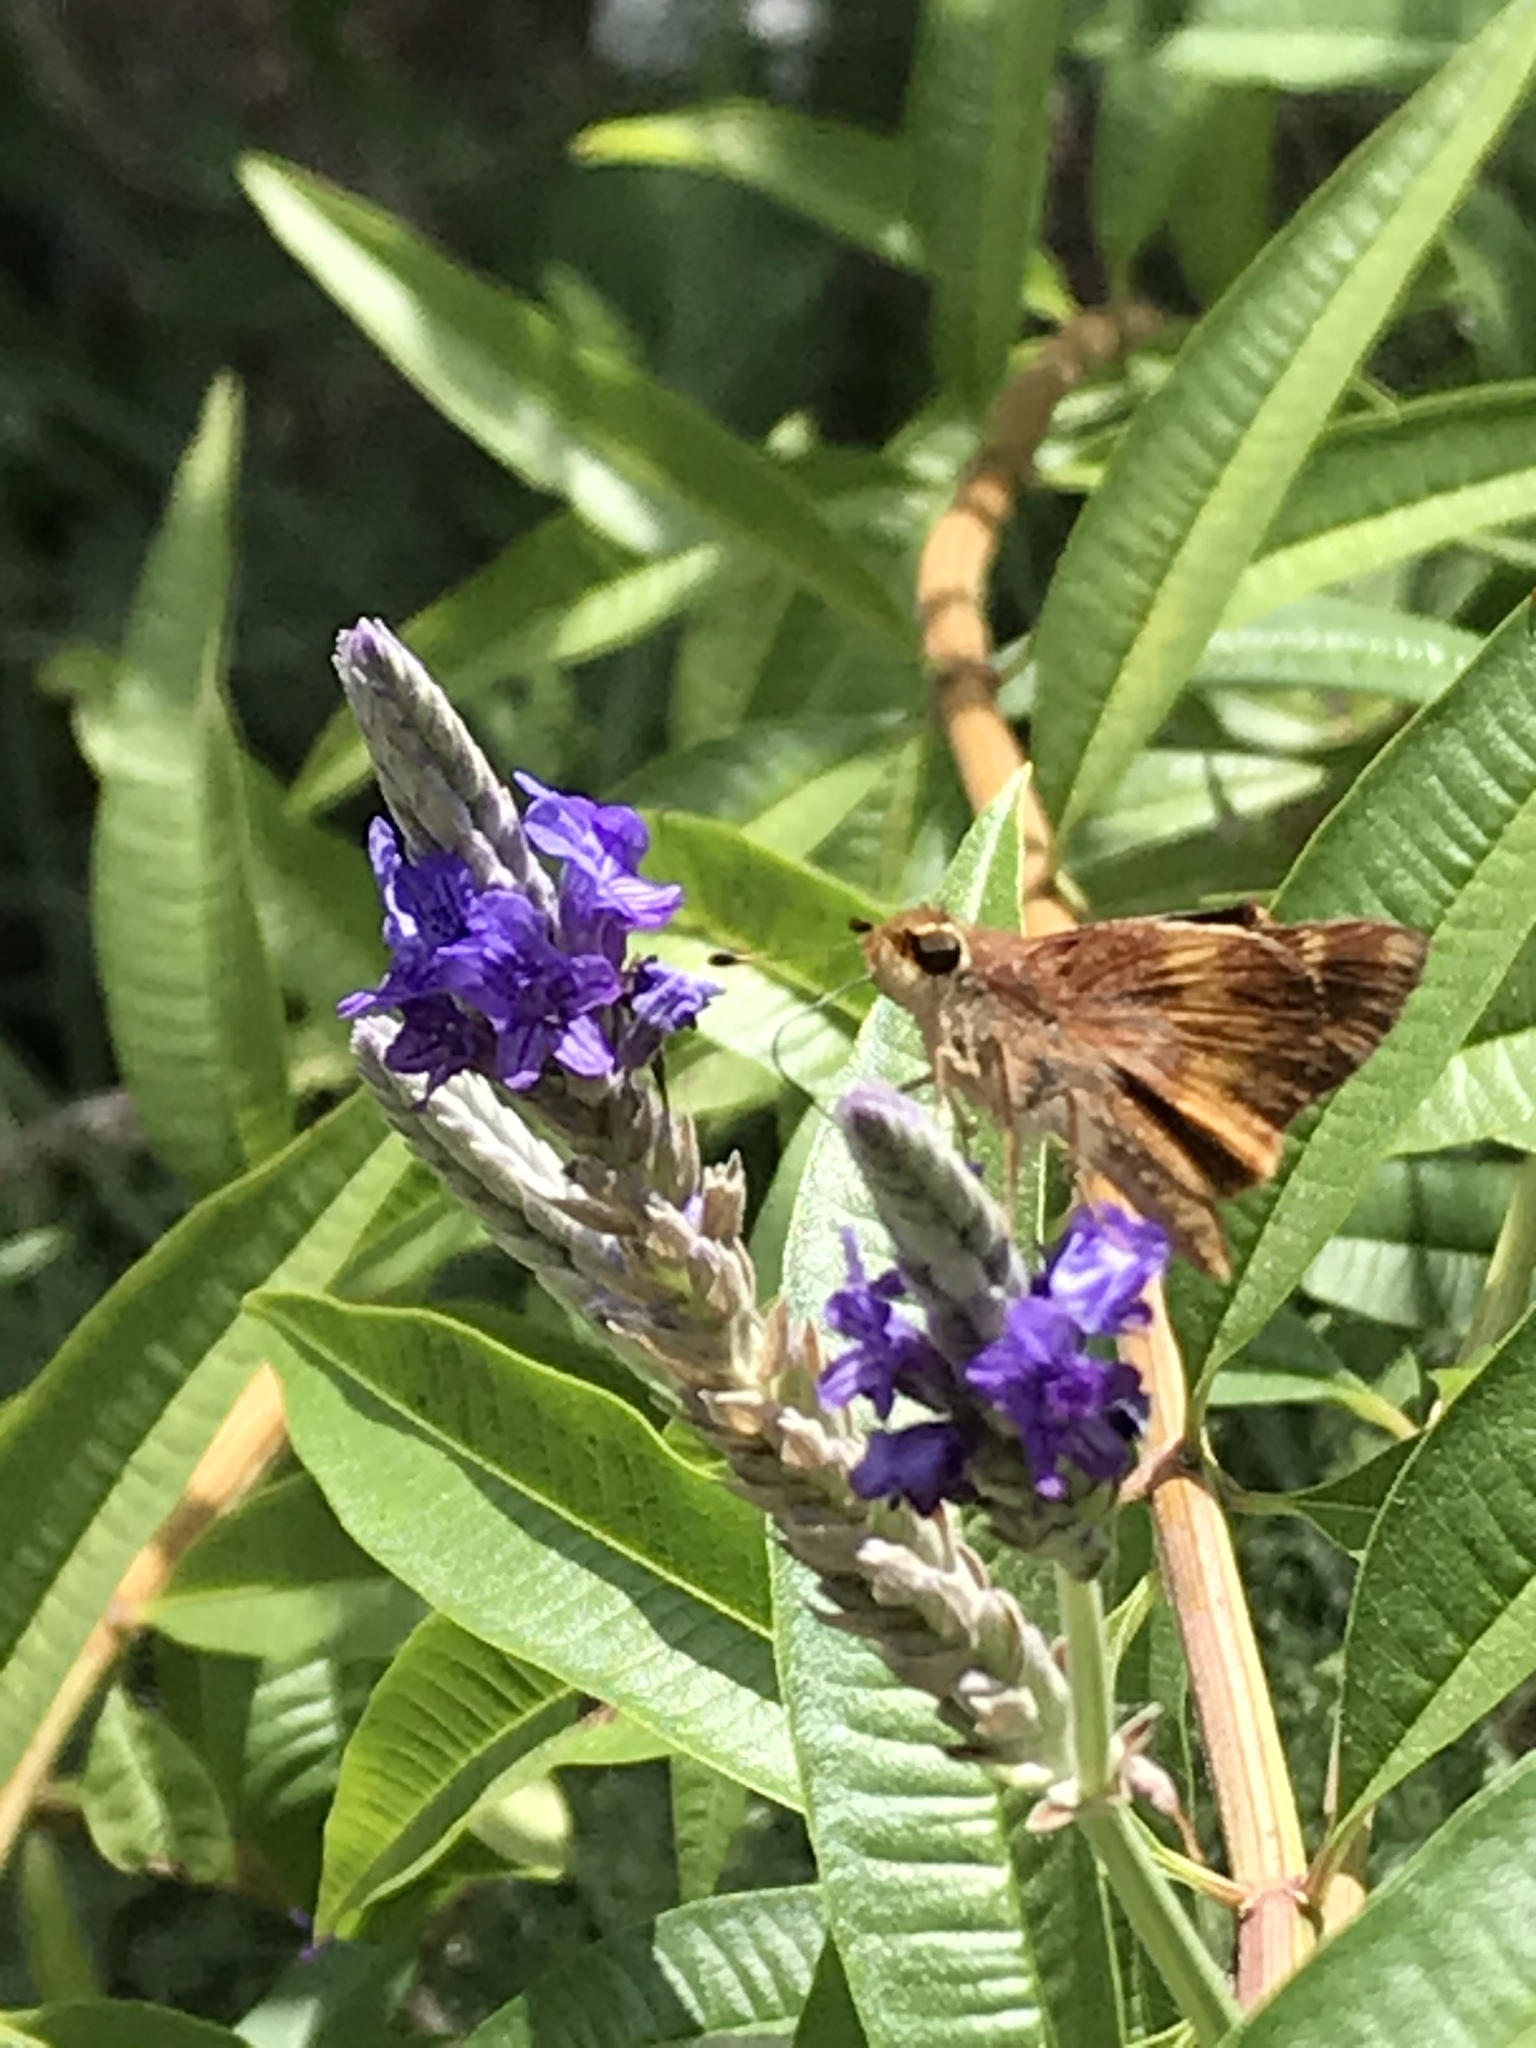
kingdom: Animalia
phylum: Arthropoda
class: Insecta
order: Lepidoptera
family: Hesperiidae
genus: Lon
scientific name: Lon melane
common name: Umber skipper
